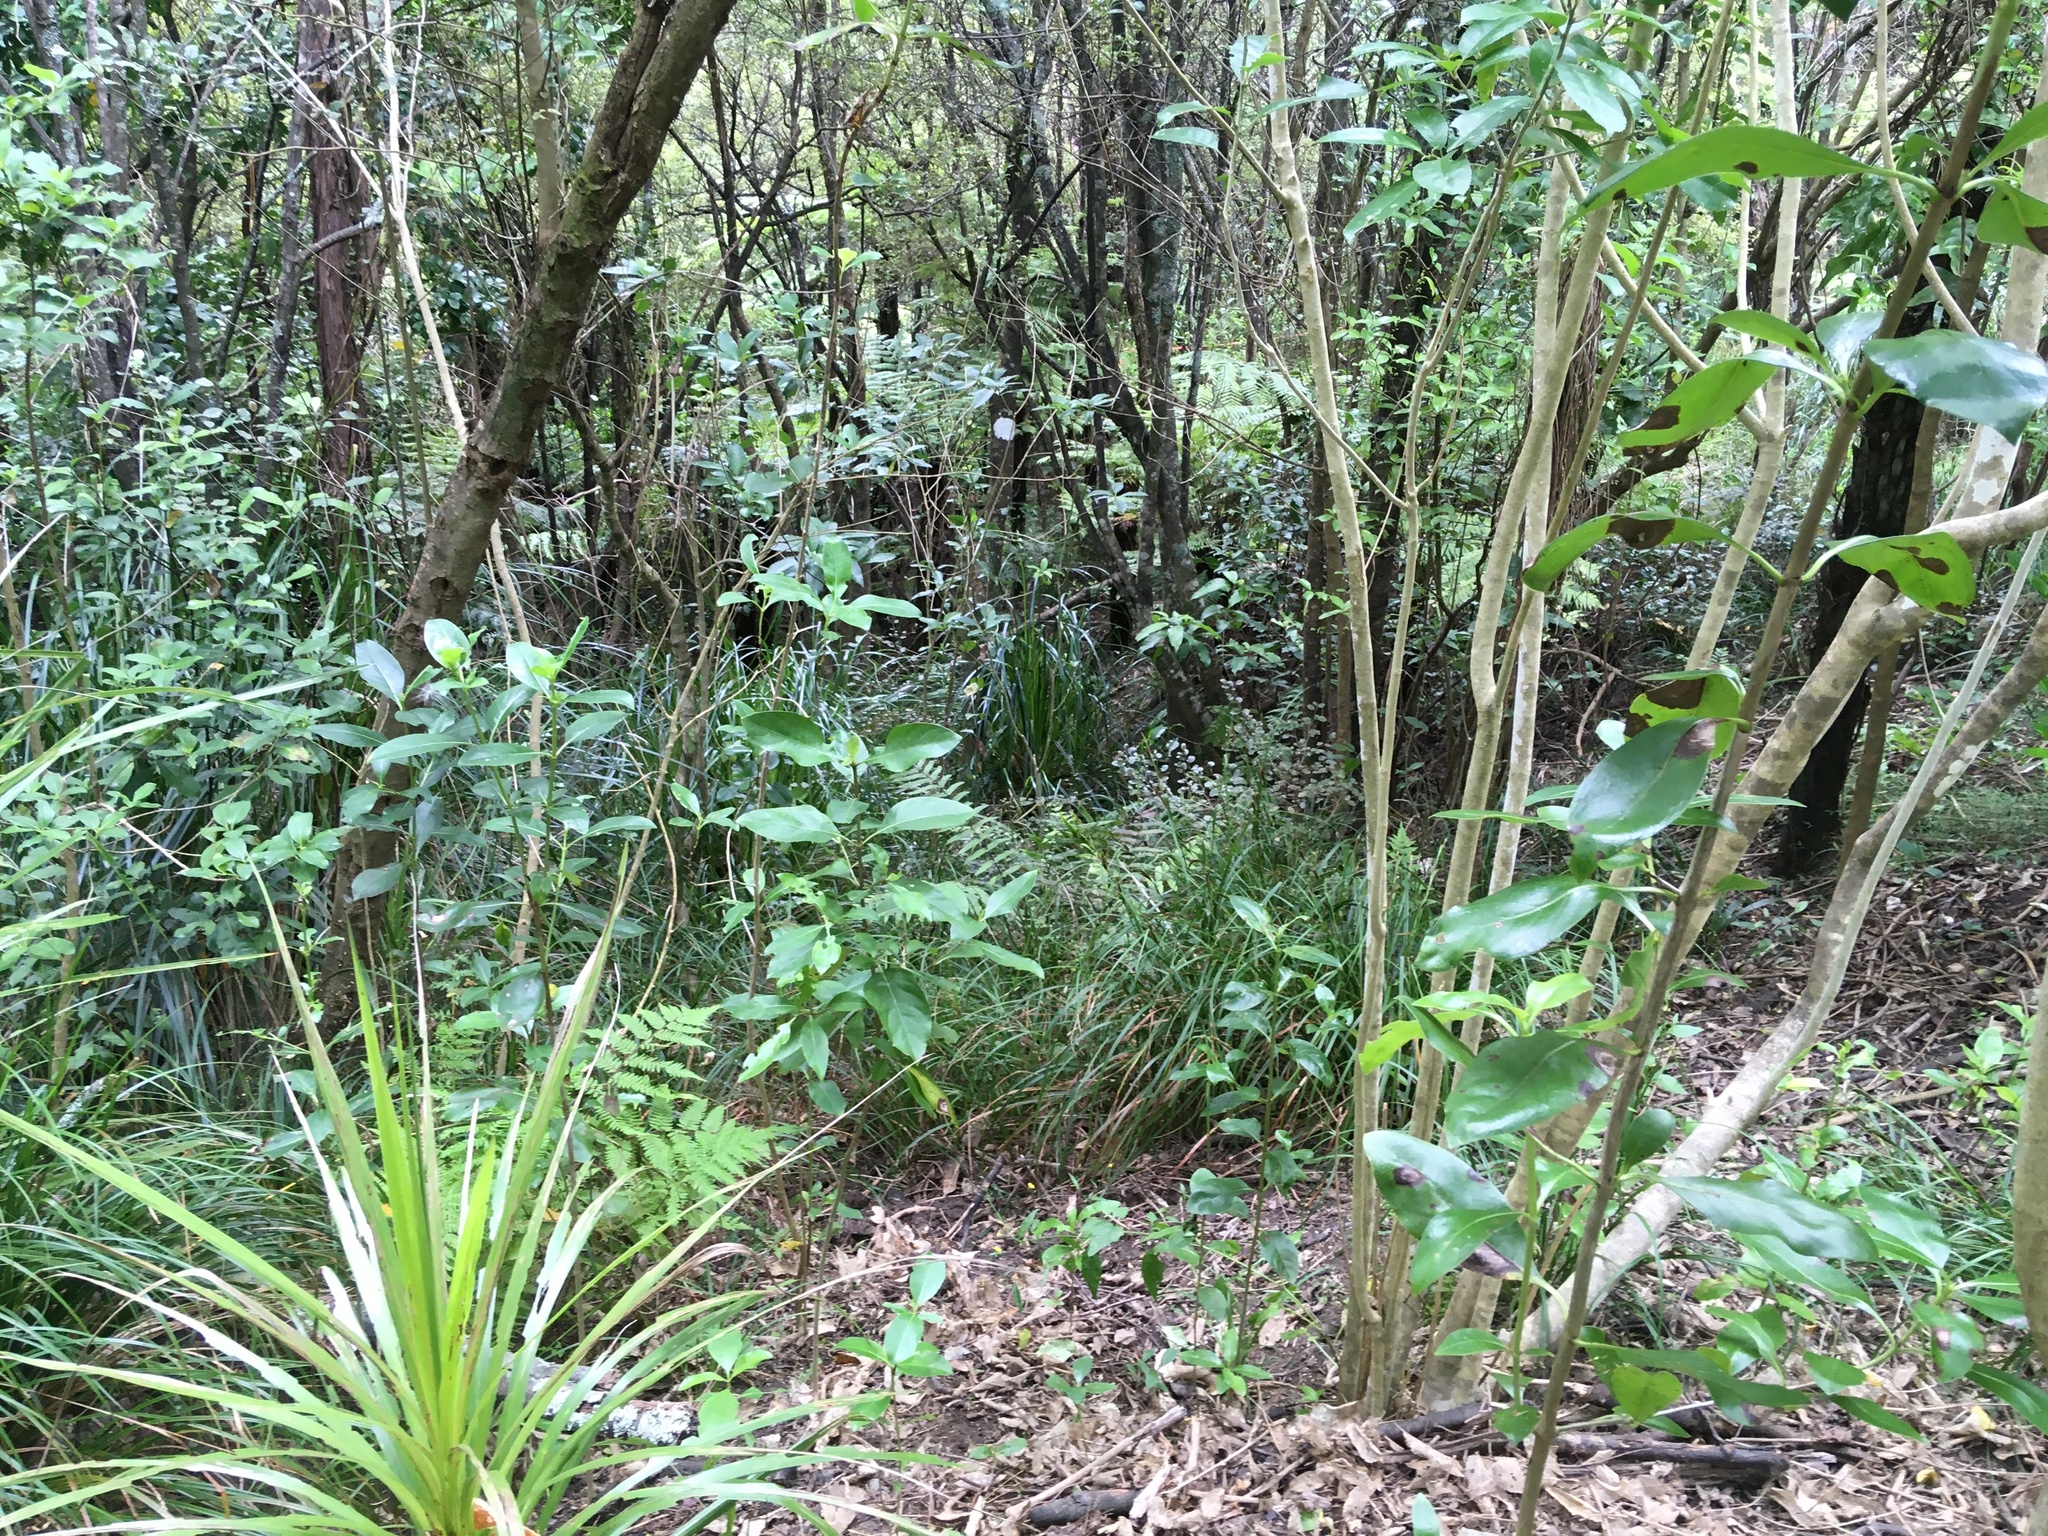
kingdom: Plantae
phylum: Tracheophyta
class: Magnoliopsida
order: Malpighiales
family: Violaceae
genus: Melicytus
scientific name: Melicytus ramiflorus
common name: Mahoe
